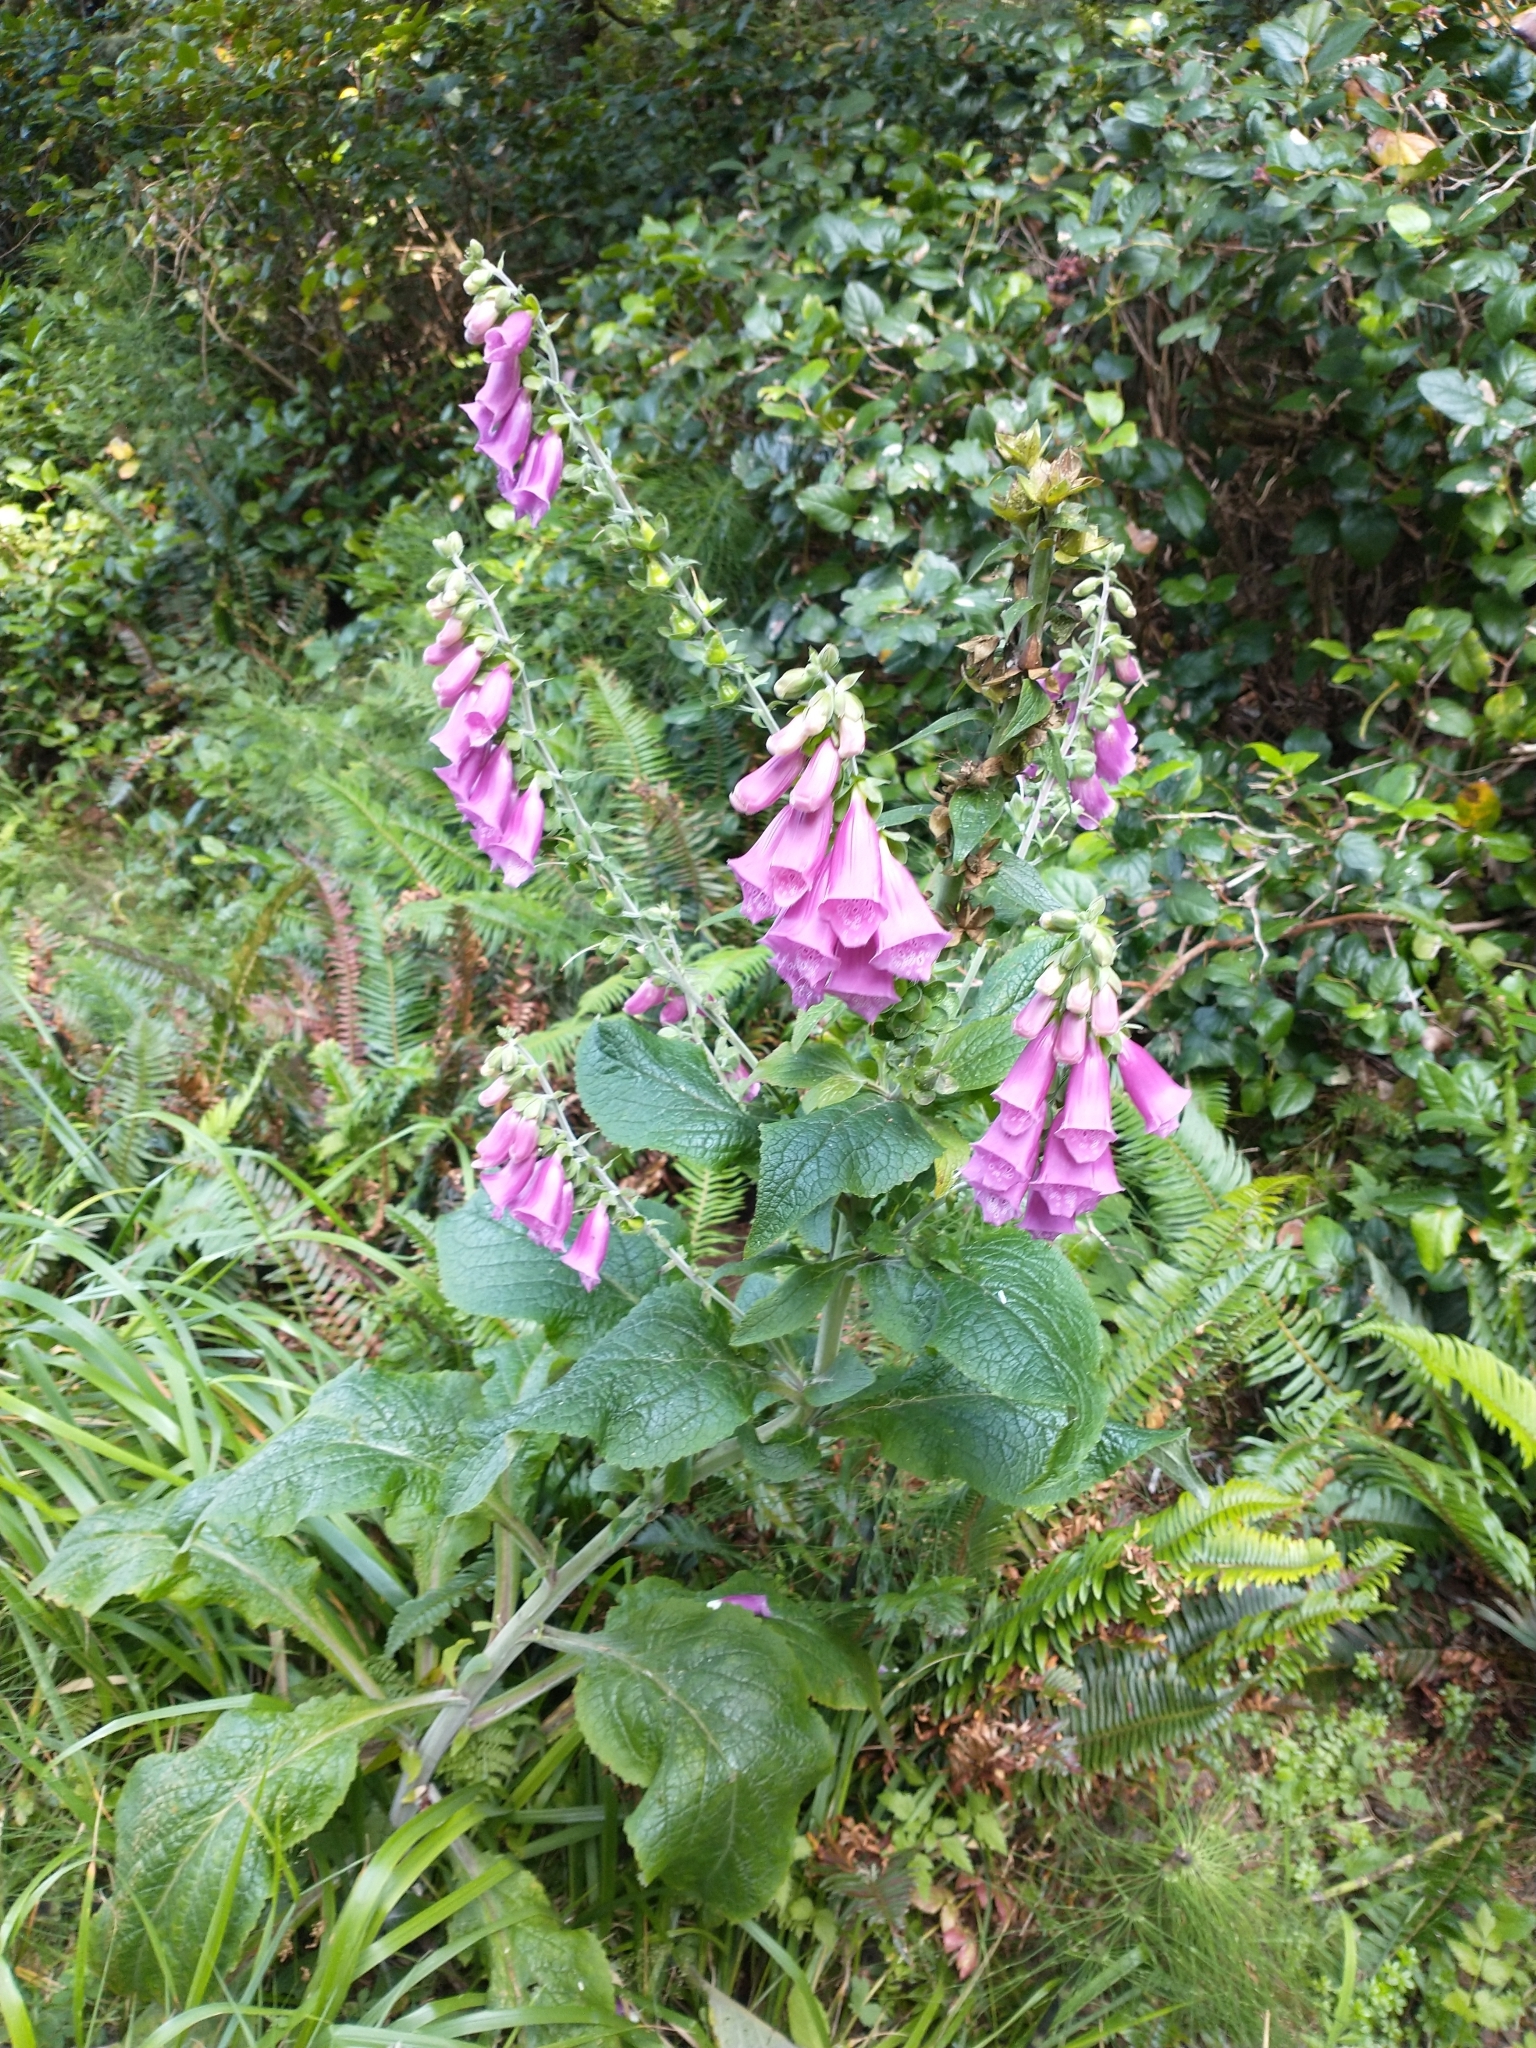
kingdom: Plantae
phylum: Tracheophyta
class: Magnoliopsida
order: Lamiales
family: Plantaginaceae
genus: Digitalis
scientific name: Digitalis purpurea
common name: Foxglove
